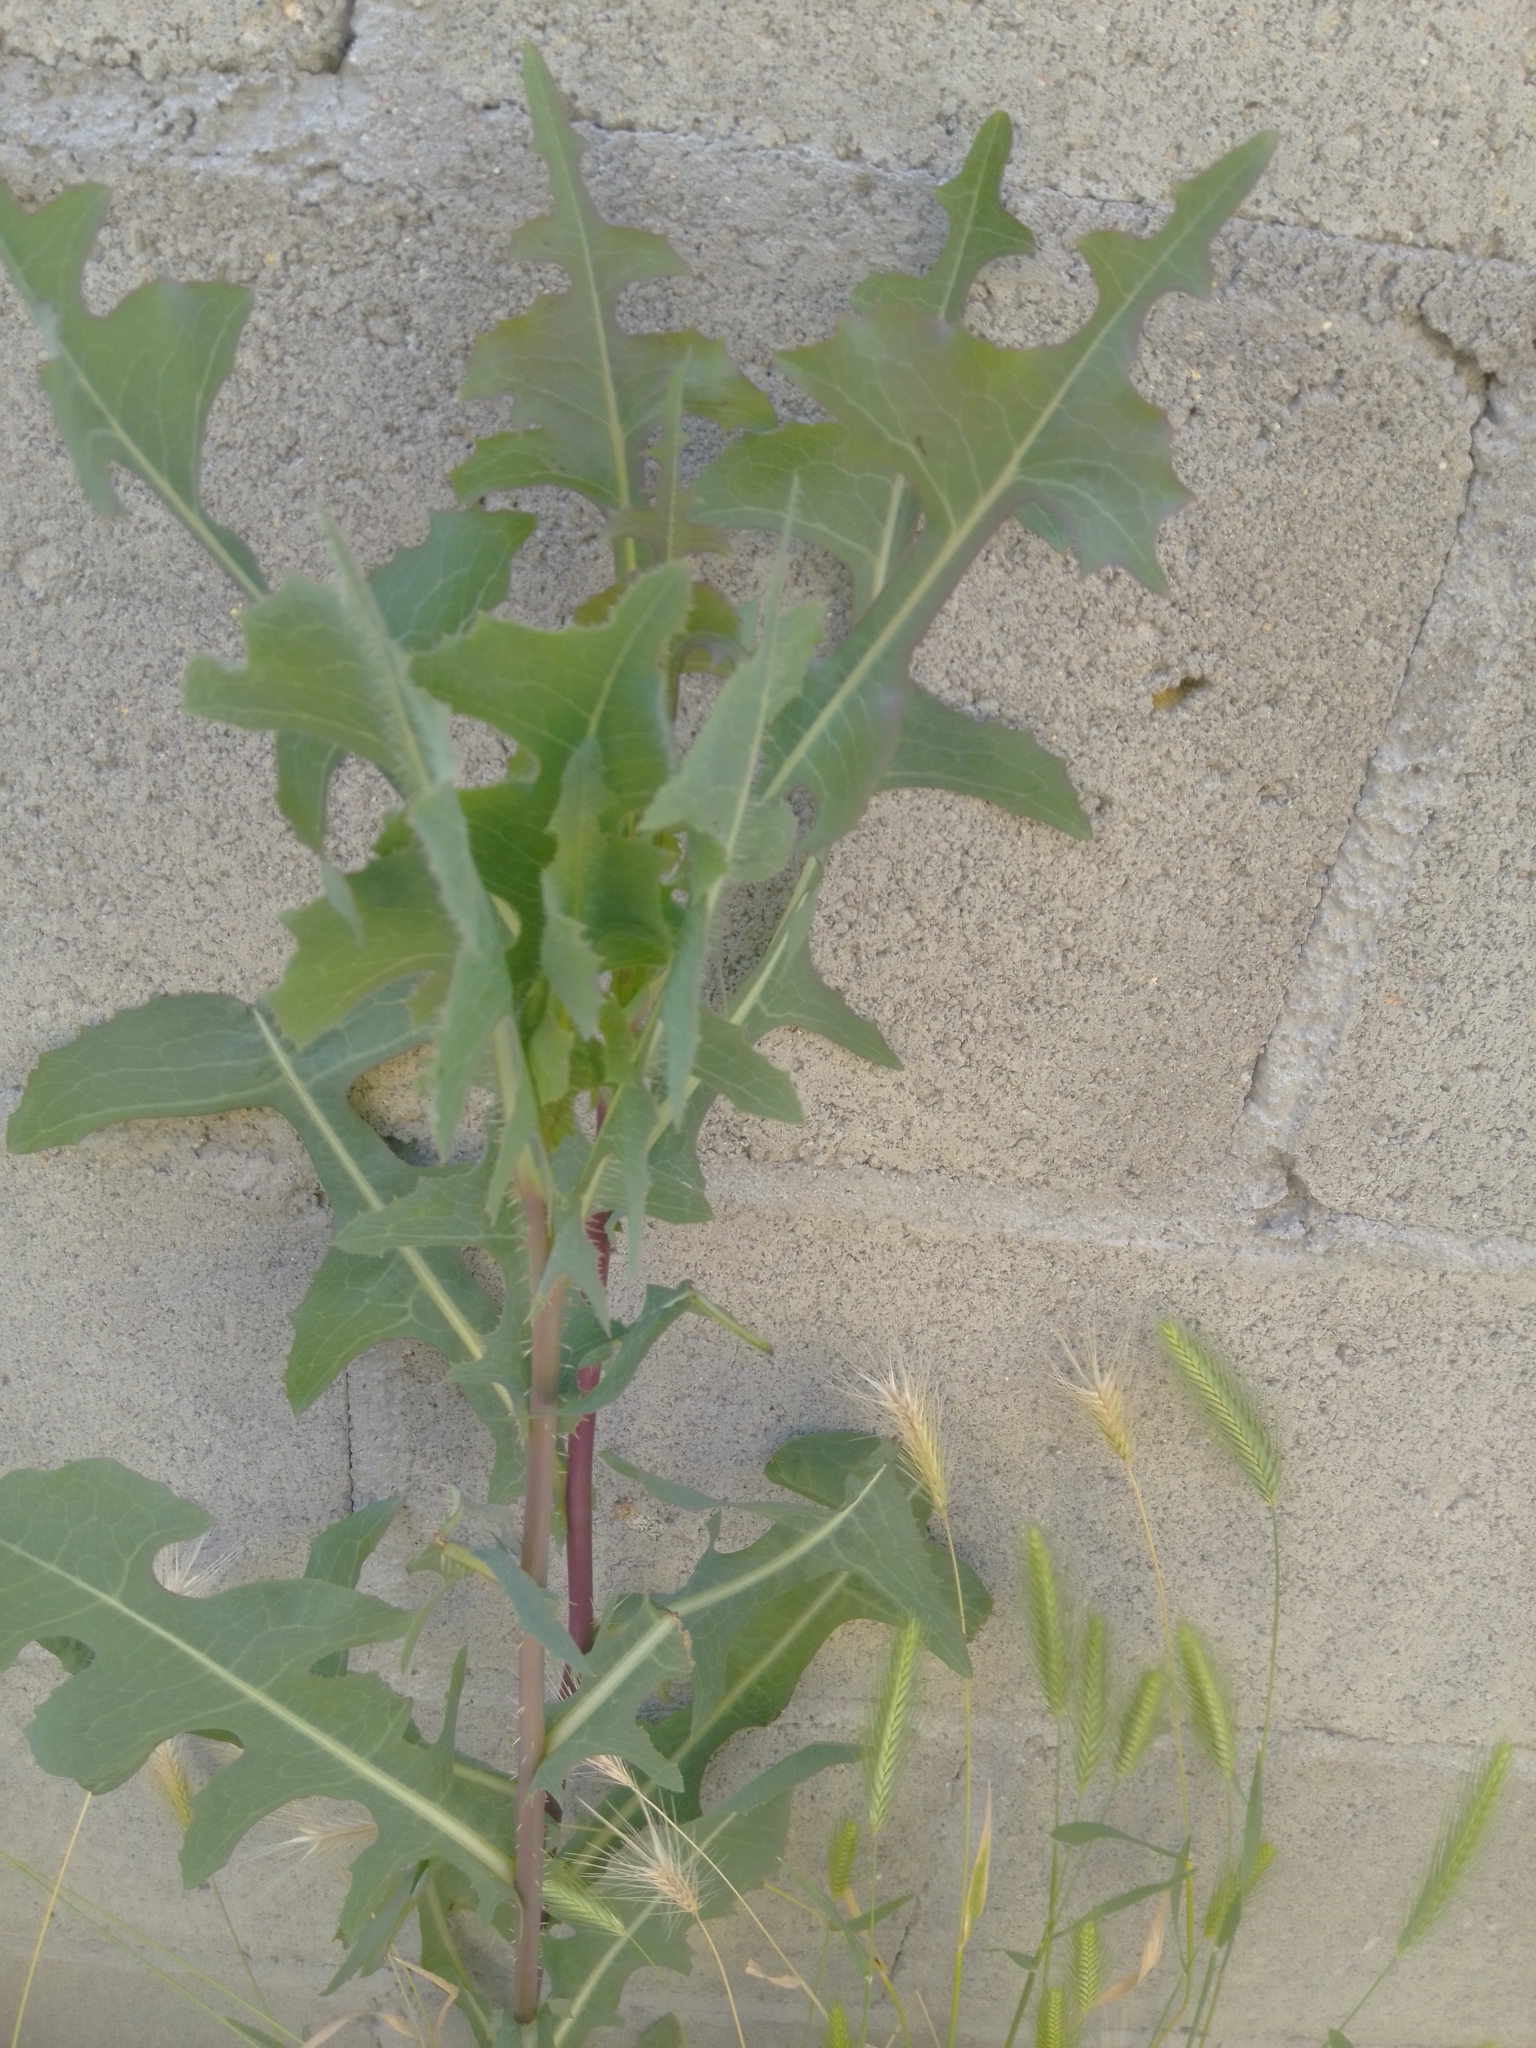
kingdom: Plantae
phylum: Tracheophyta
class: Magnoliopsida
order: Asterales
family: Asteraceae
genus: Lactuca
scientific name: Lactuca serriola
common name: Prickly lettuce
